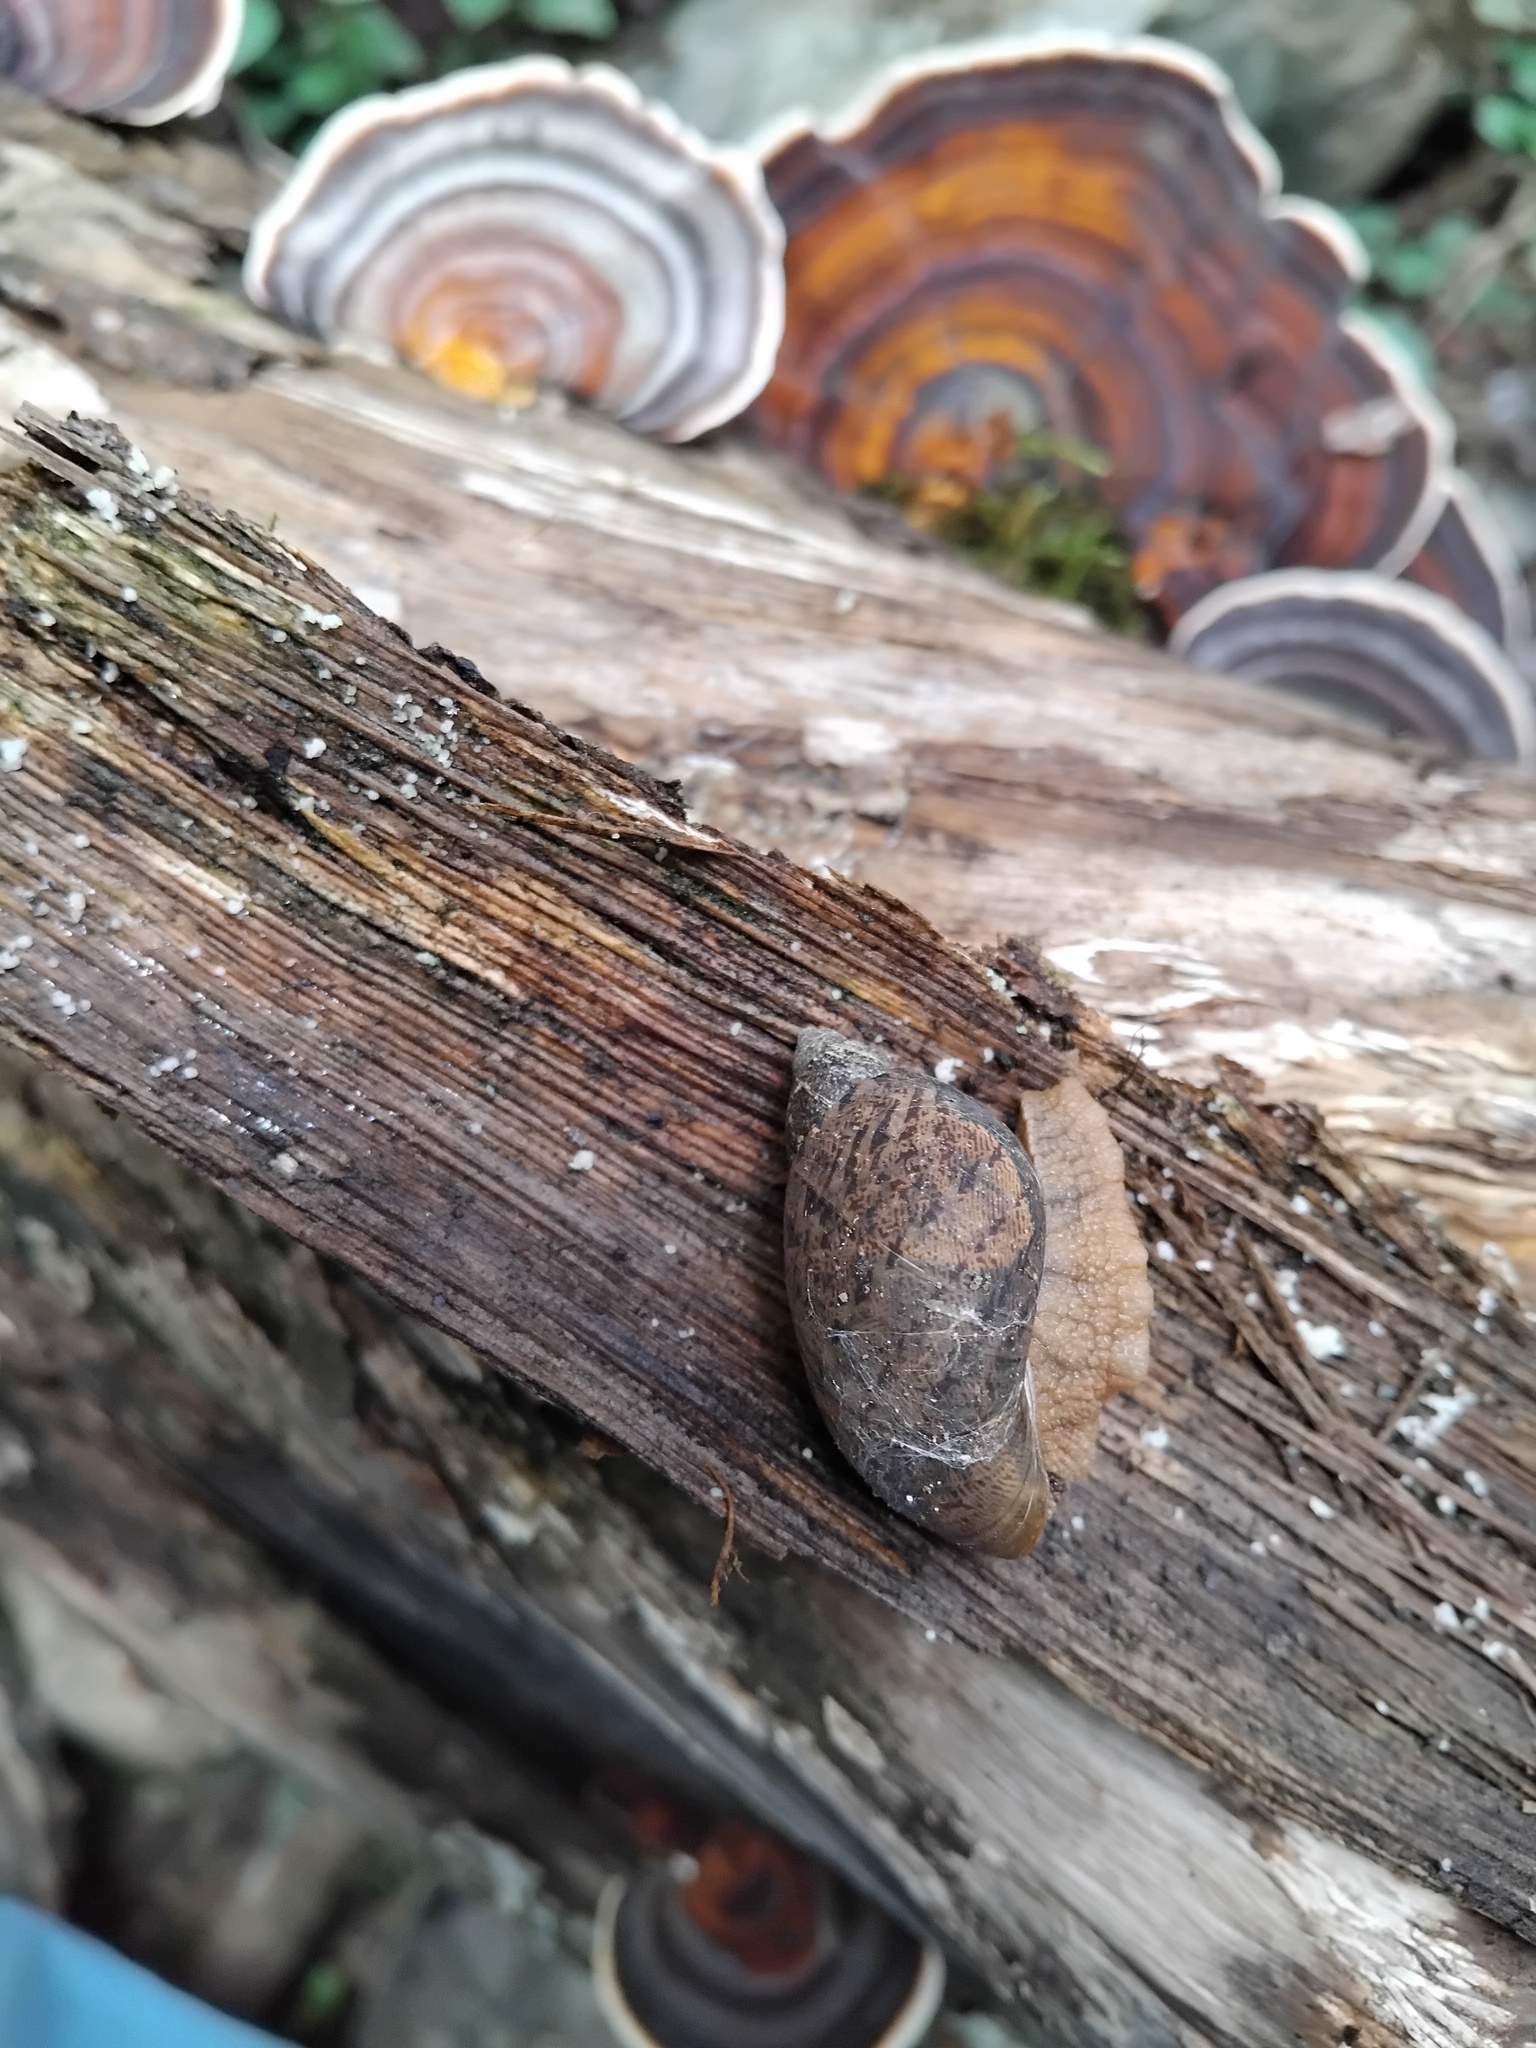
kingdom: Animalia
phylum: Mollusca
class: Gastropoda
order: Stylommatophora
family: Caryodidae
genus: Brazieresta
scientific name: Brazieresta larreyi
